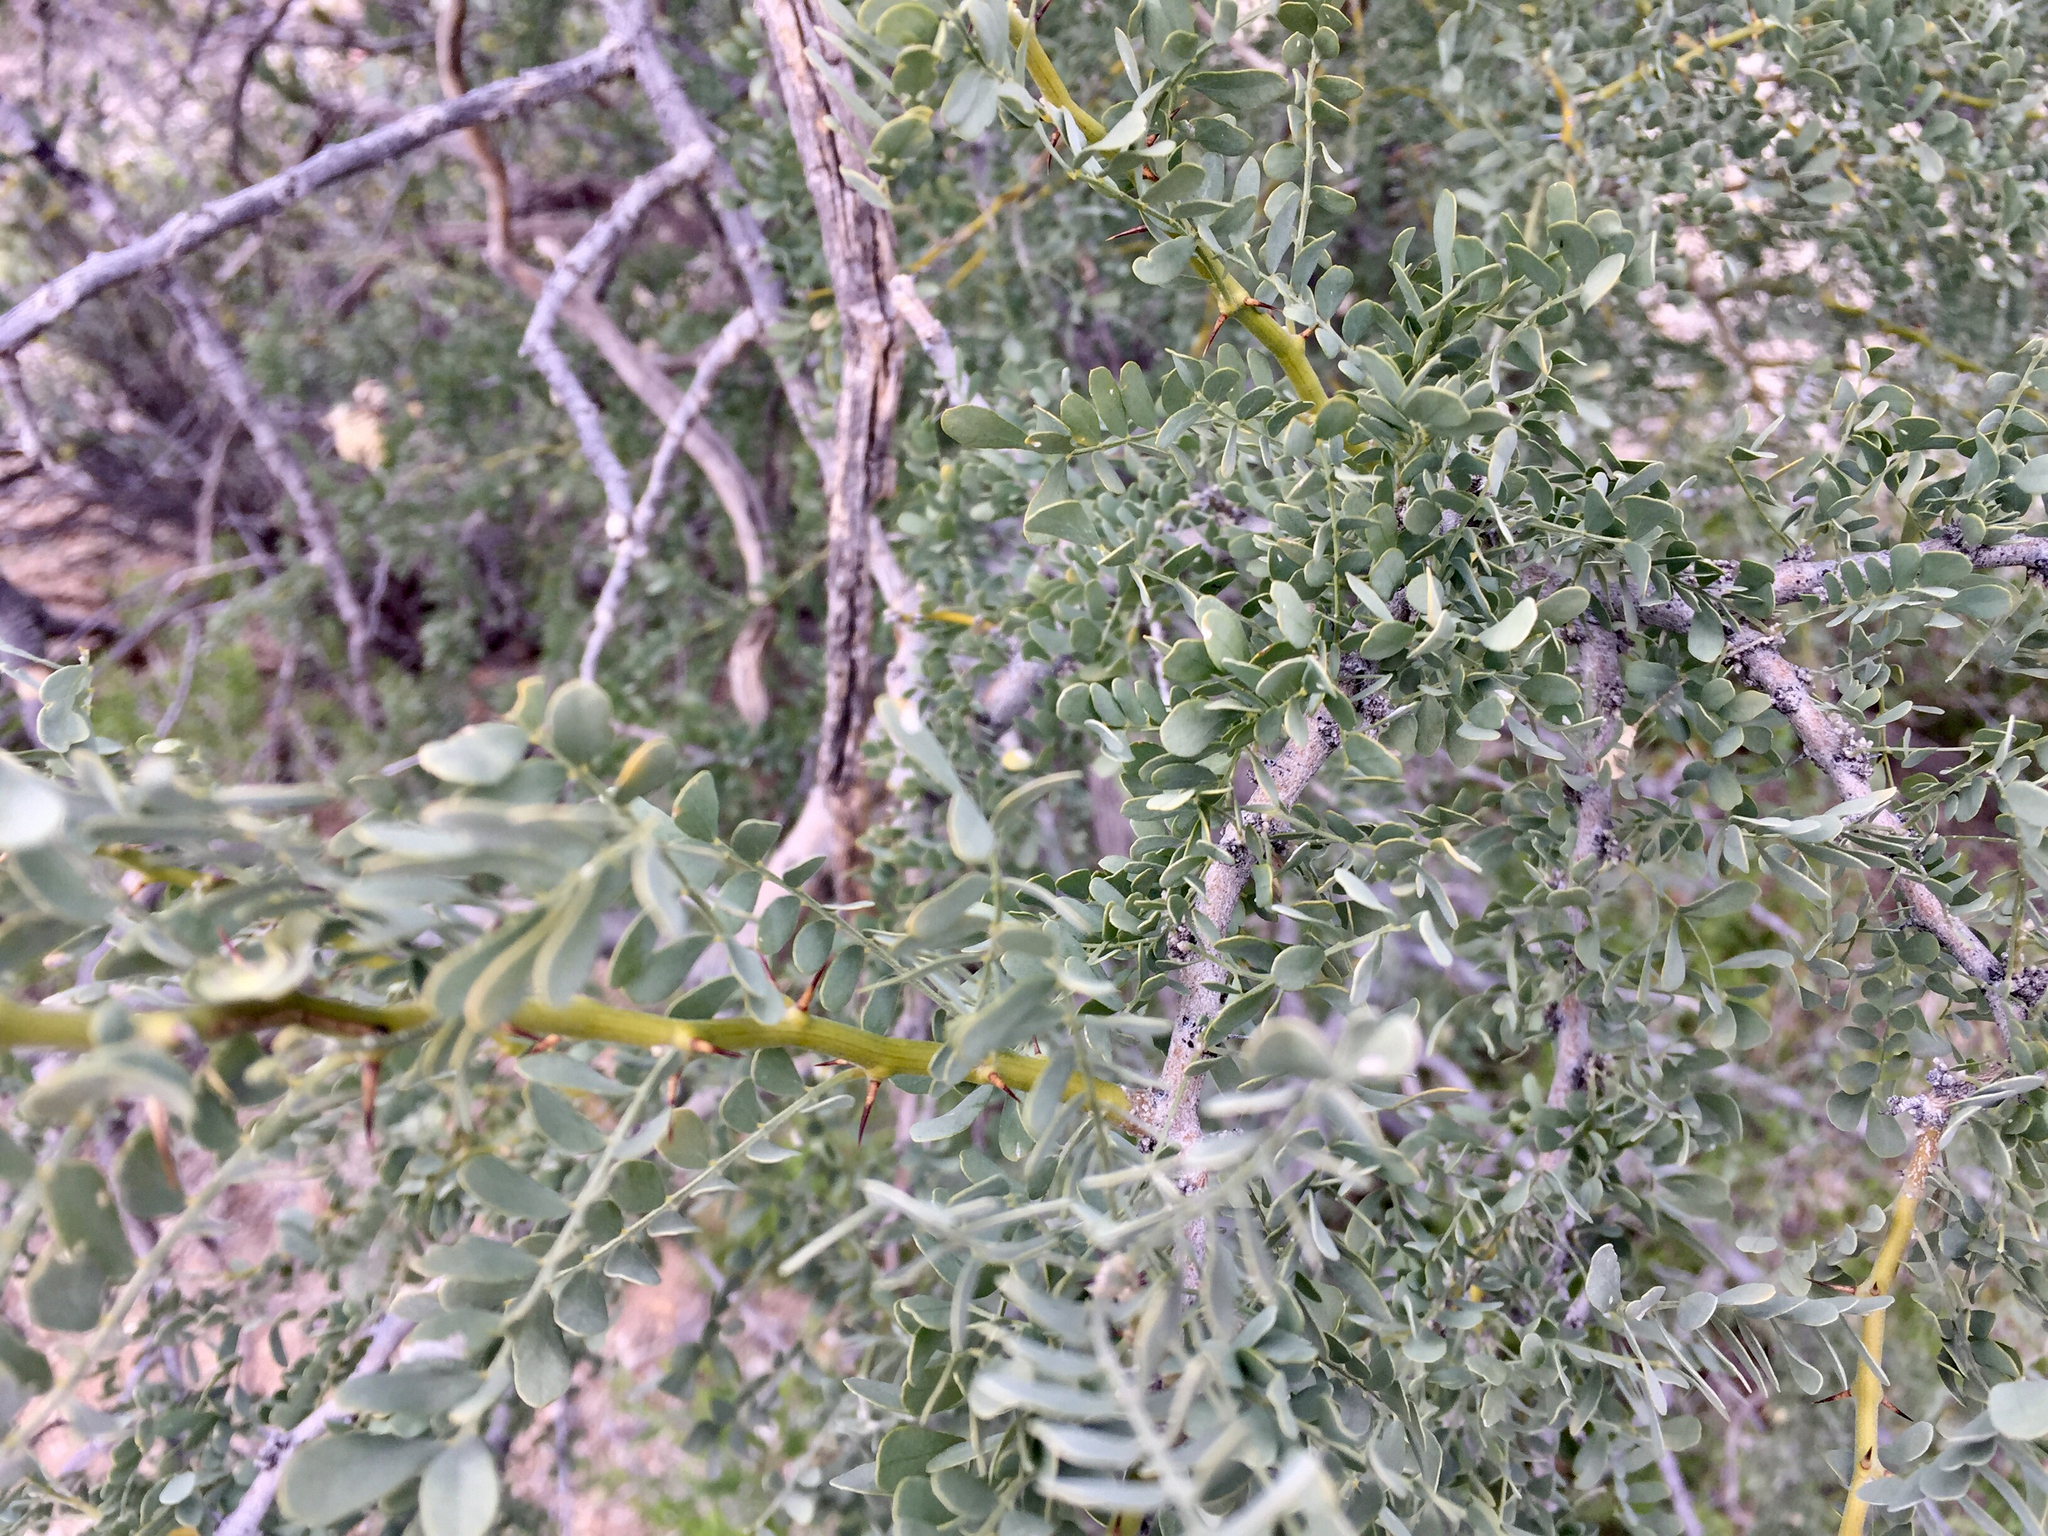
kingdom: Plantae
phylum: Tracheophyta
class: Magnoliopsida
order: Fabales
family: Fabaceae
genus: Olneya
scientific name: Olneya tesota
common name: Desert ironwood
